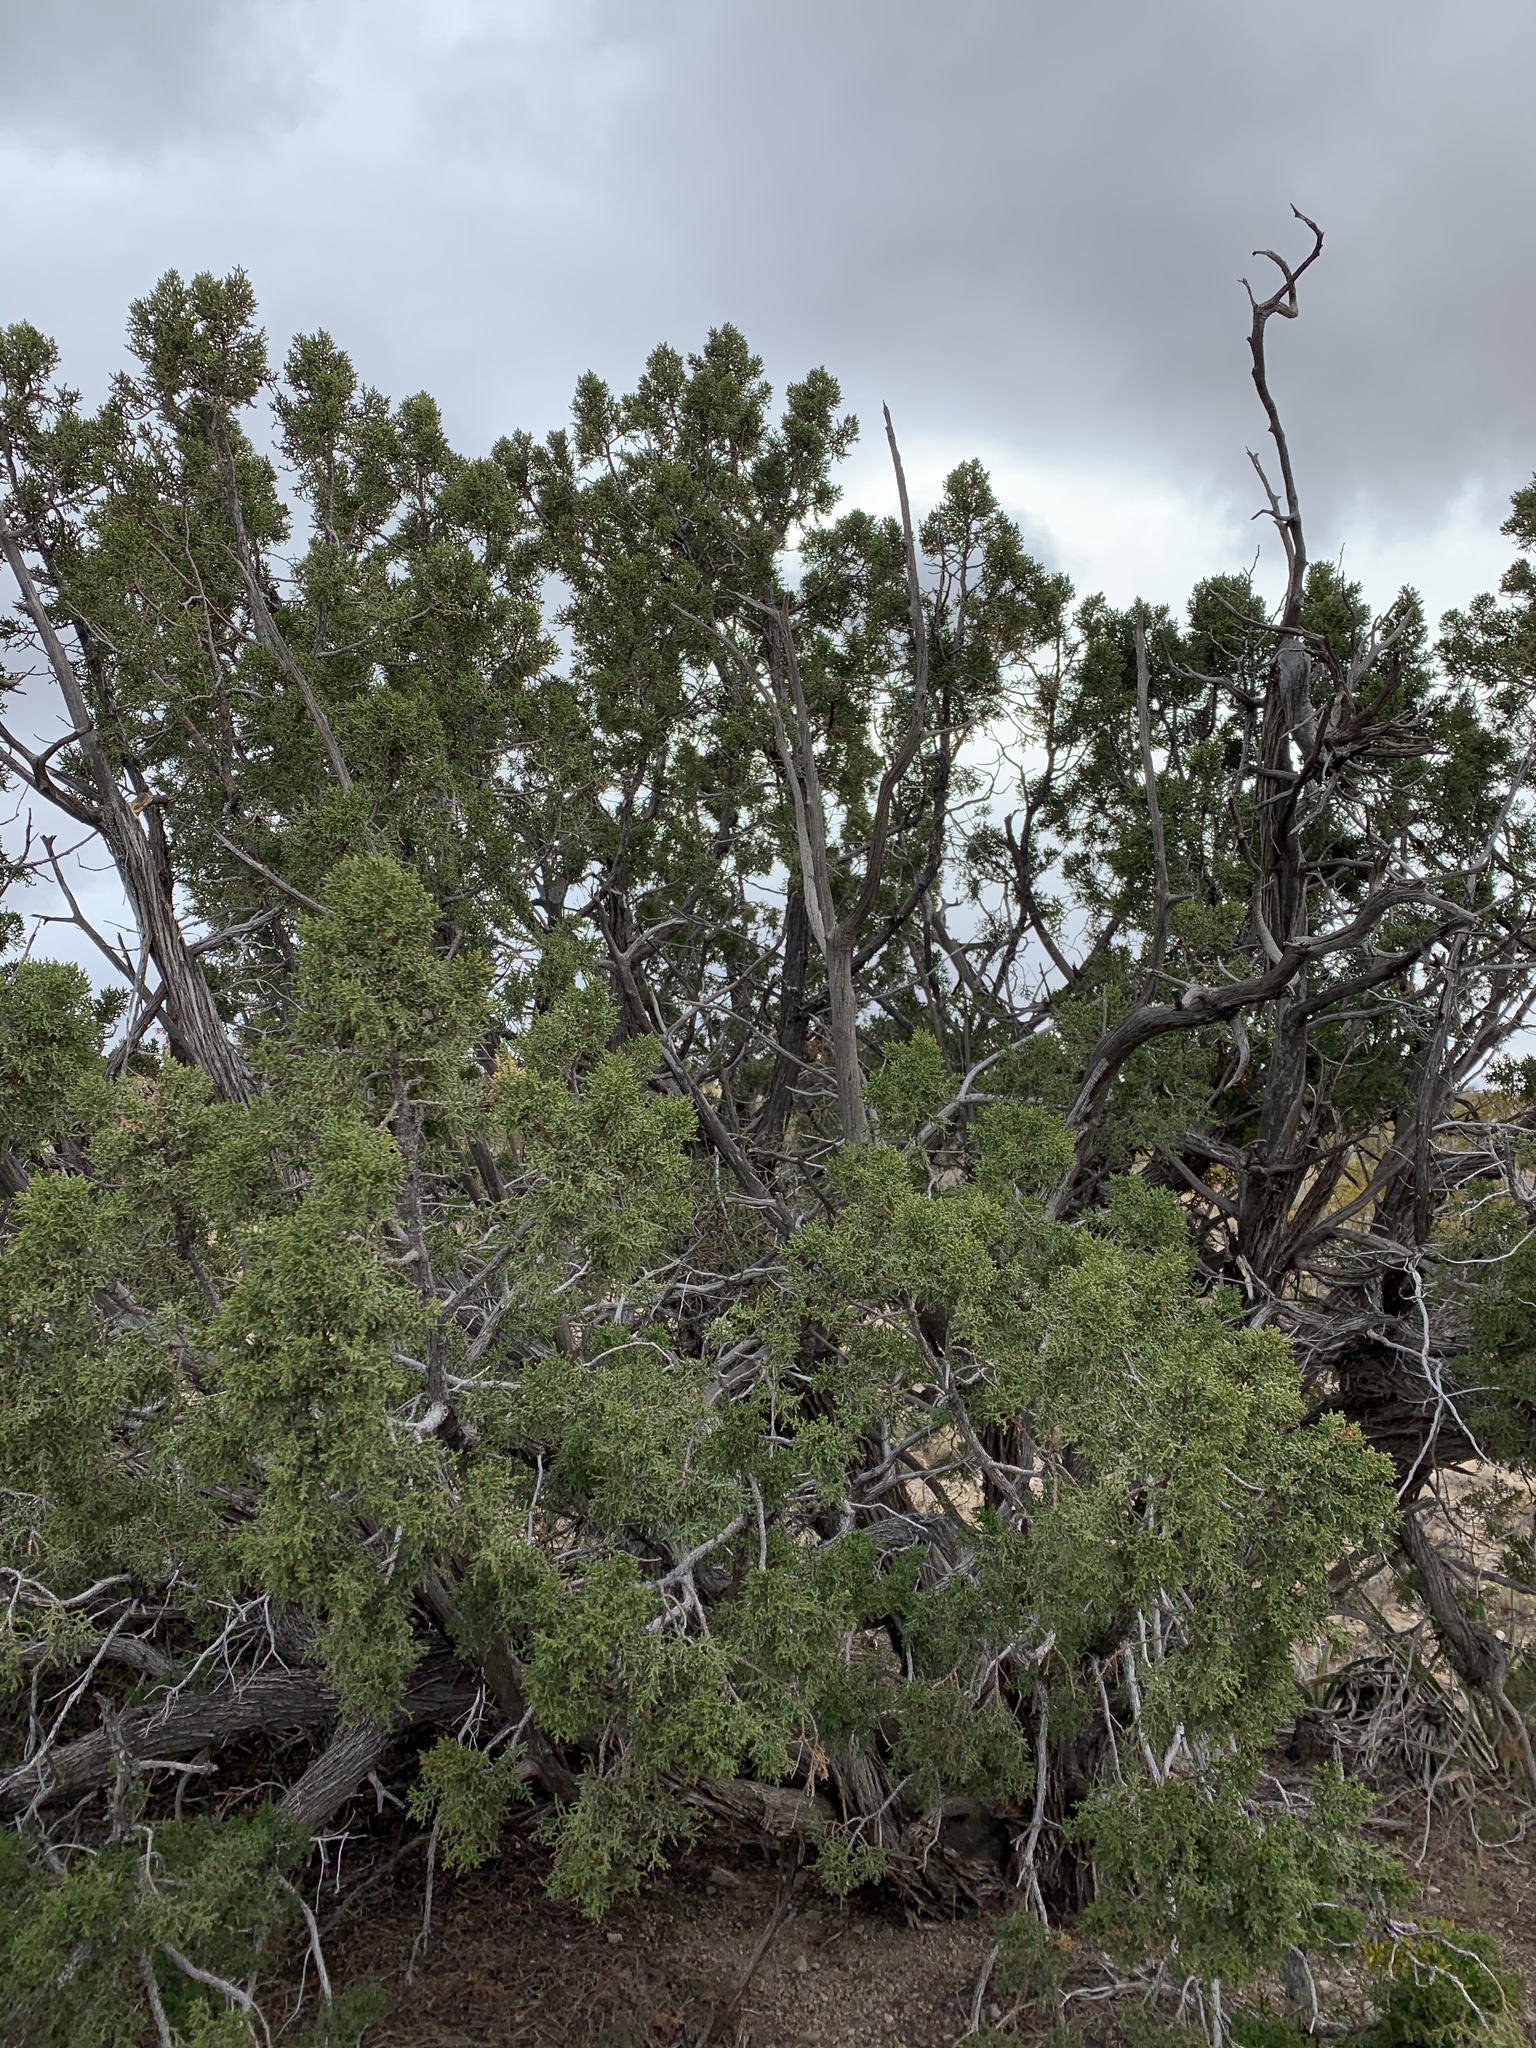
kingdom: Plantae
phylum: Tracheophyta
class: Pinopsida
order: Pinales
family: Cupressaceae
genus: Juniperus
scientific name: Juniperus monosperma
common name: One-seed juniper
